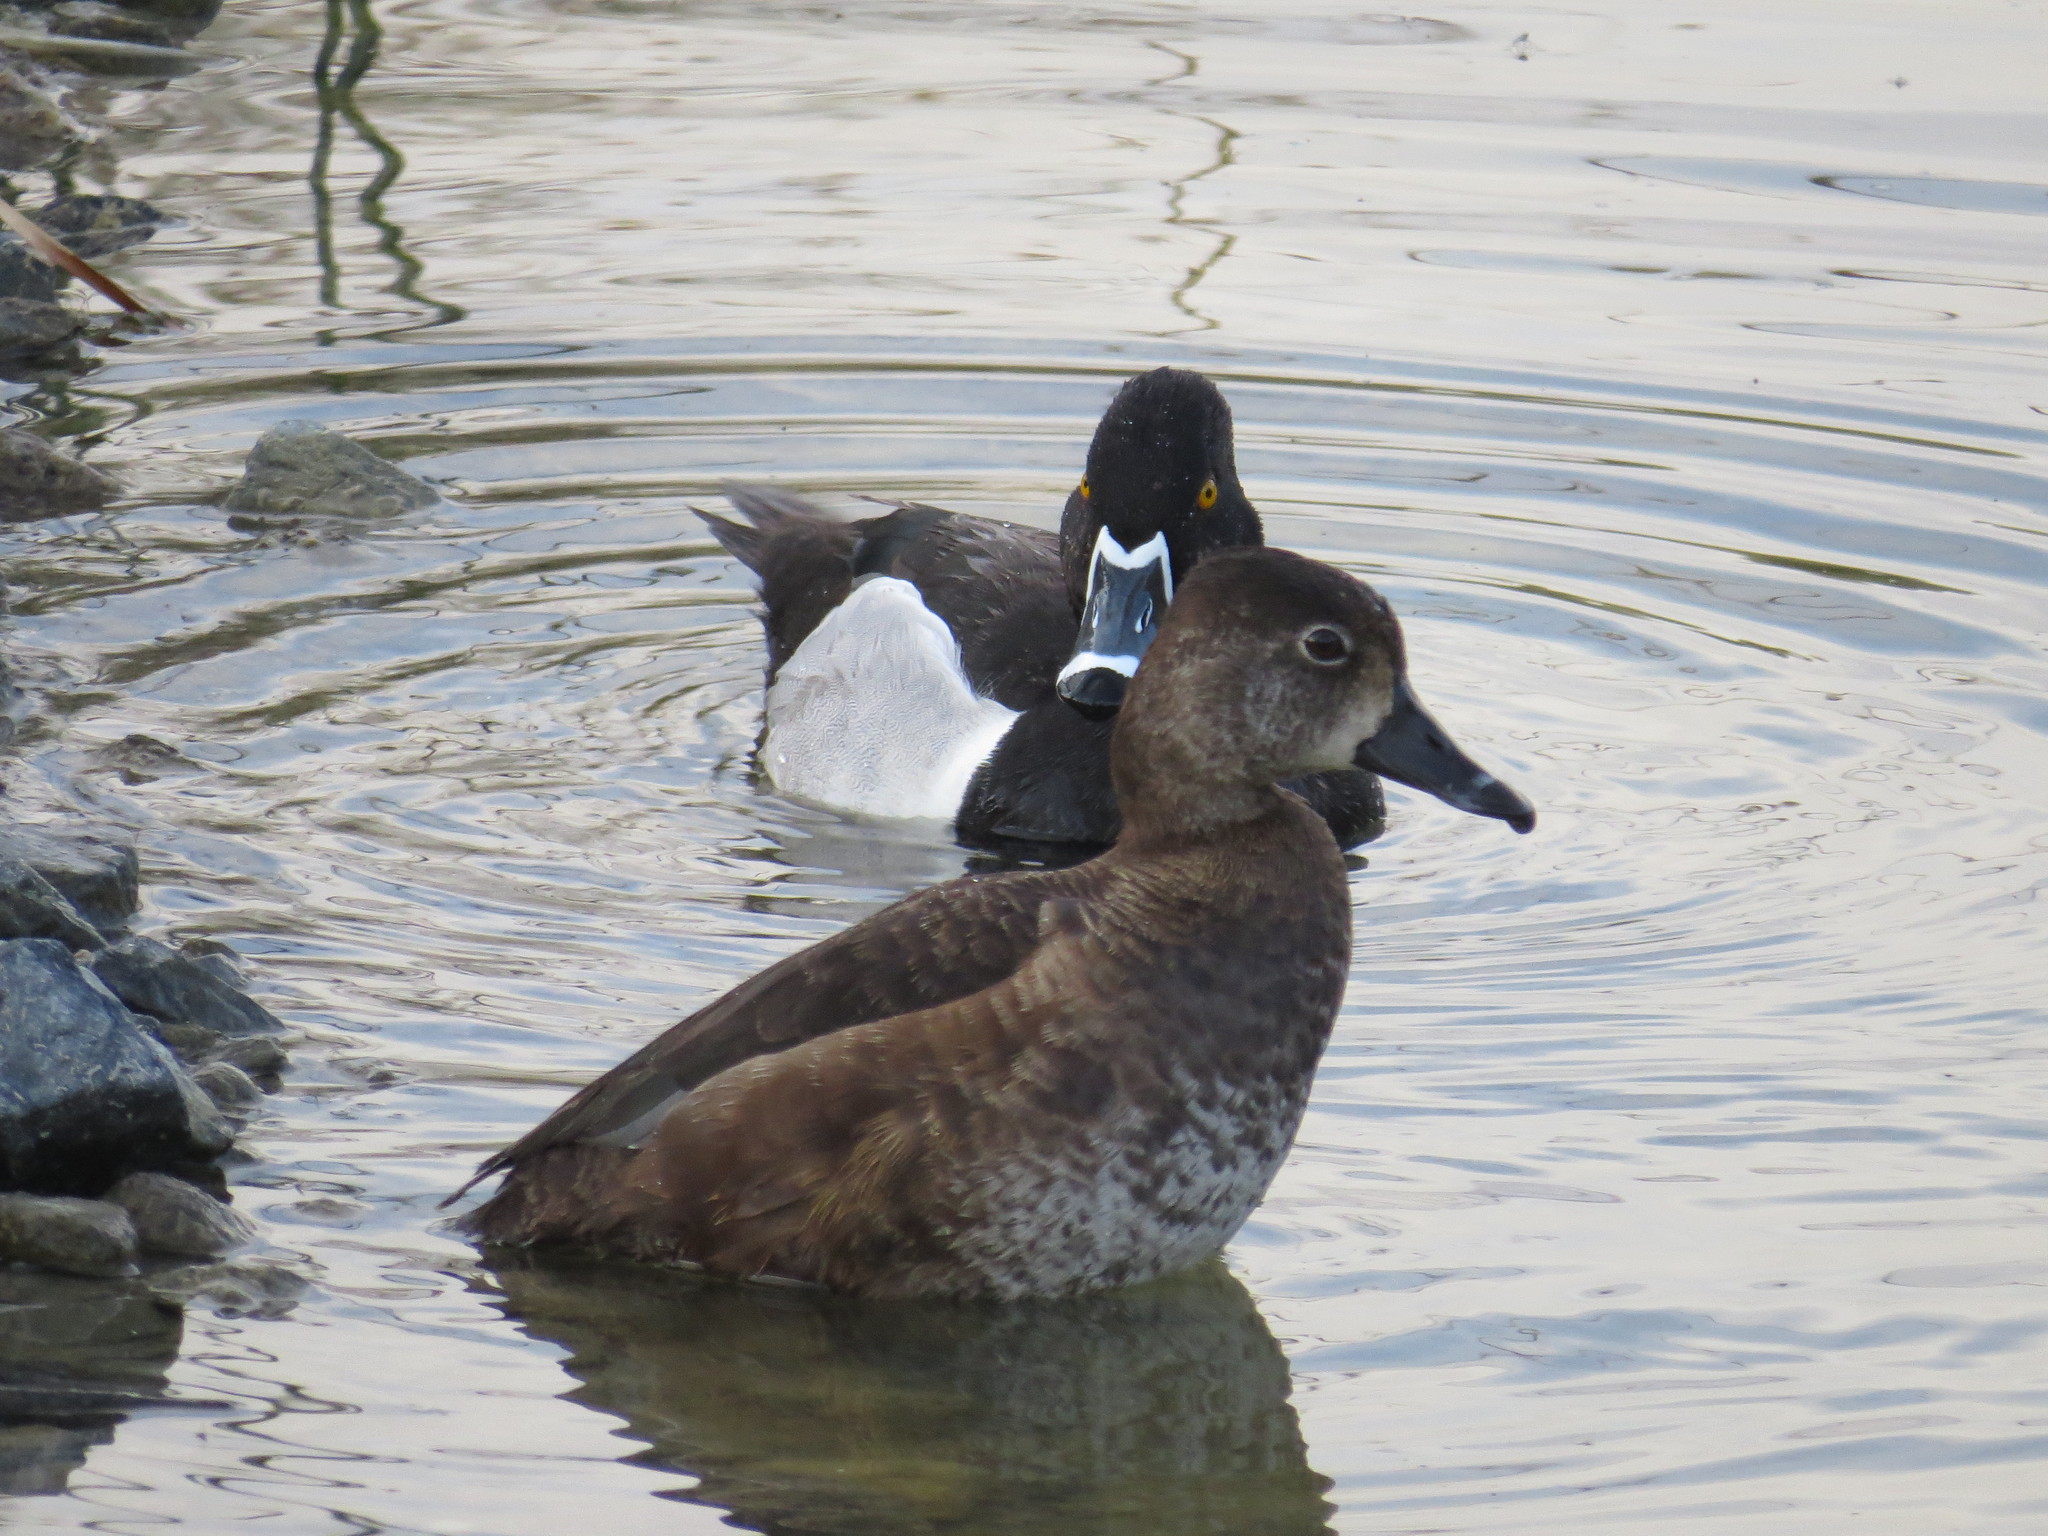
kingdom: Animalia
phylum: Chordata
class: Aves
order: Anseriformes
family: Anatidae
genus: Aythya
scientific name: Aythya collaris
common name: Ring-necked duck
